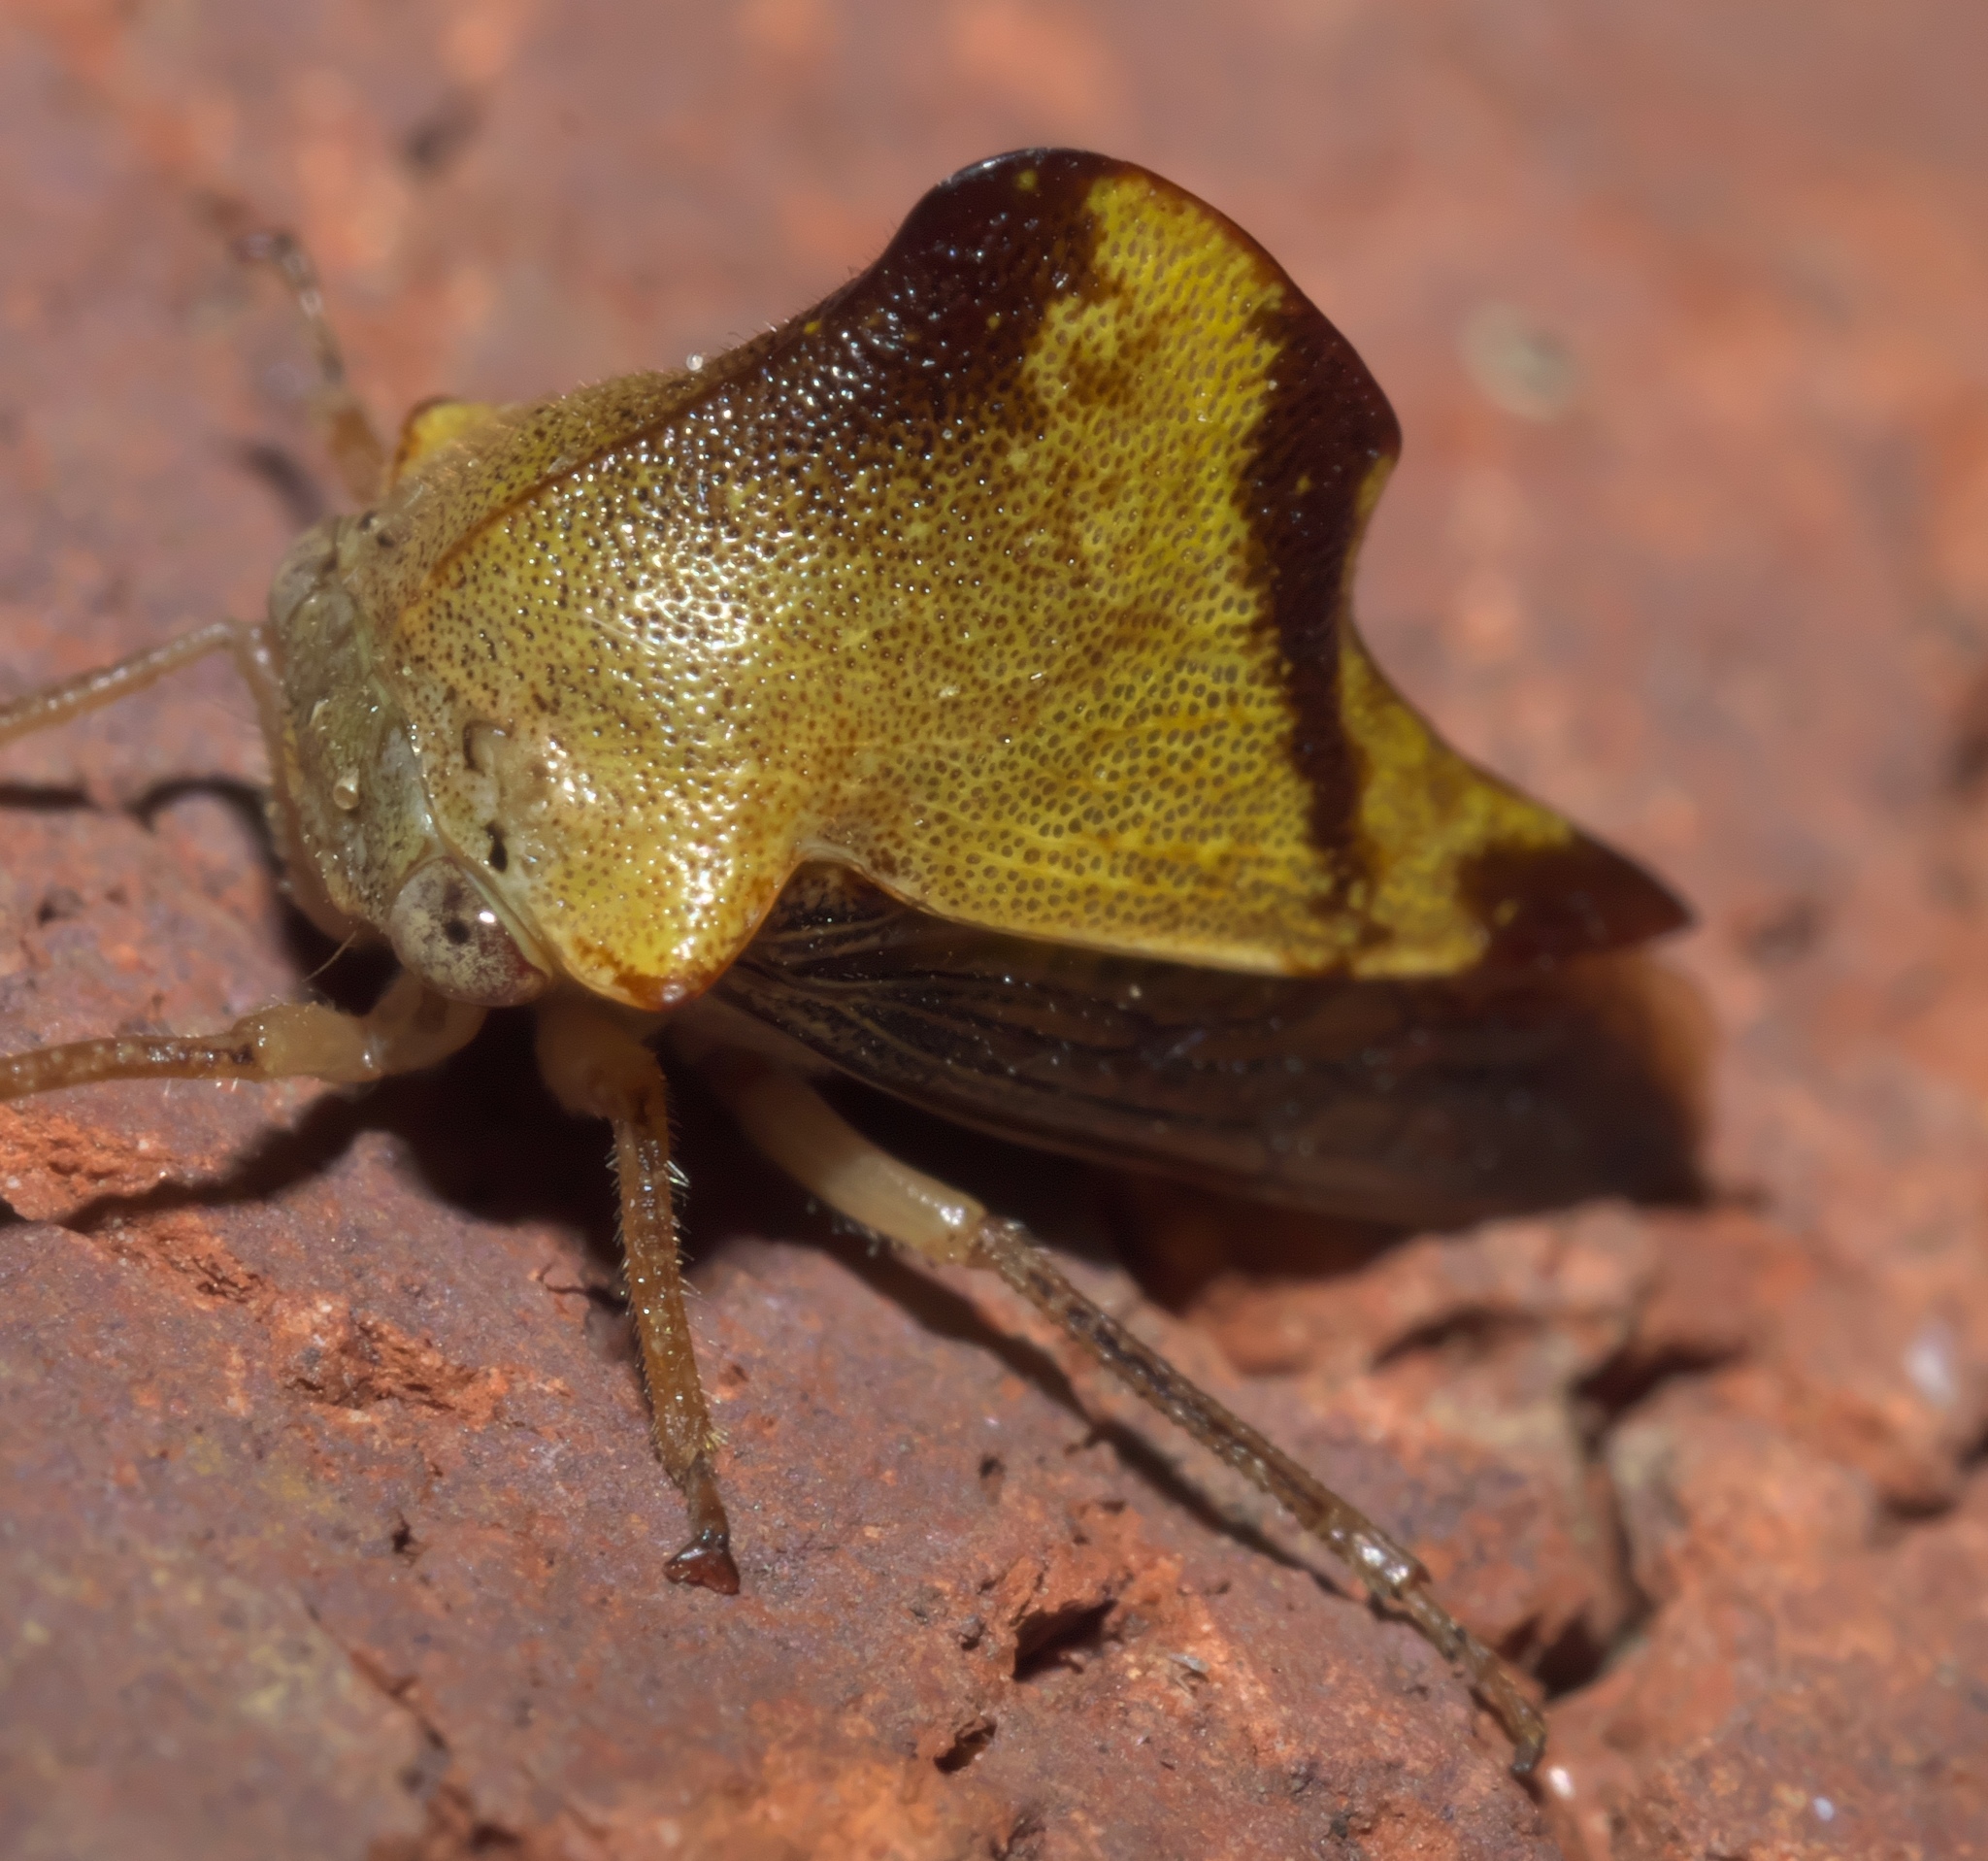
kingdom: Animalia
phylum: Arthropoda
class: Insecta
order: Hemiptera
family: Membracidae
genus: Helonica
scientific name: Helonica excelsa
